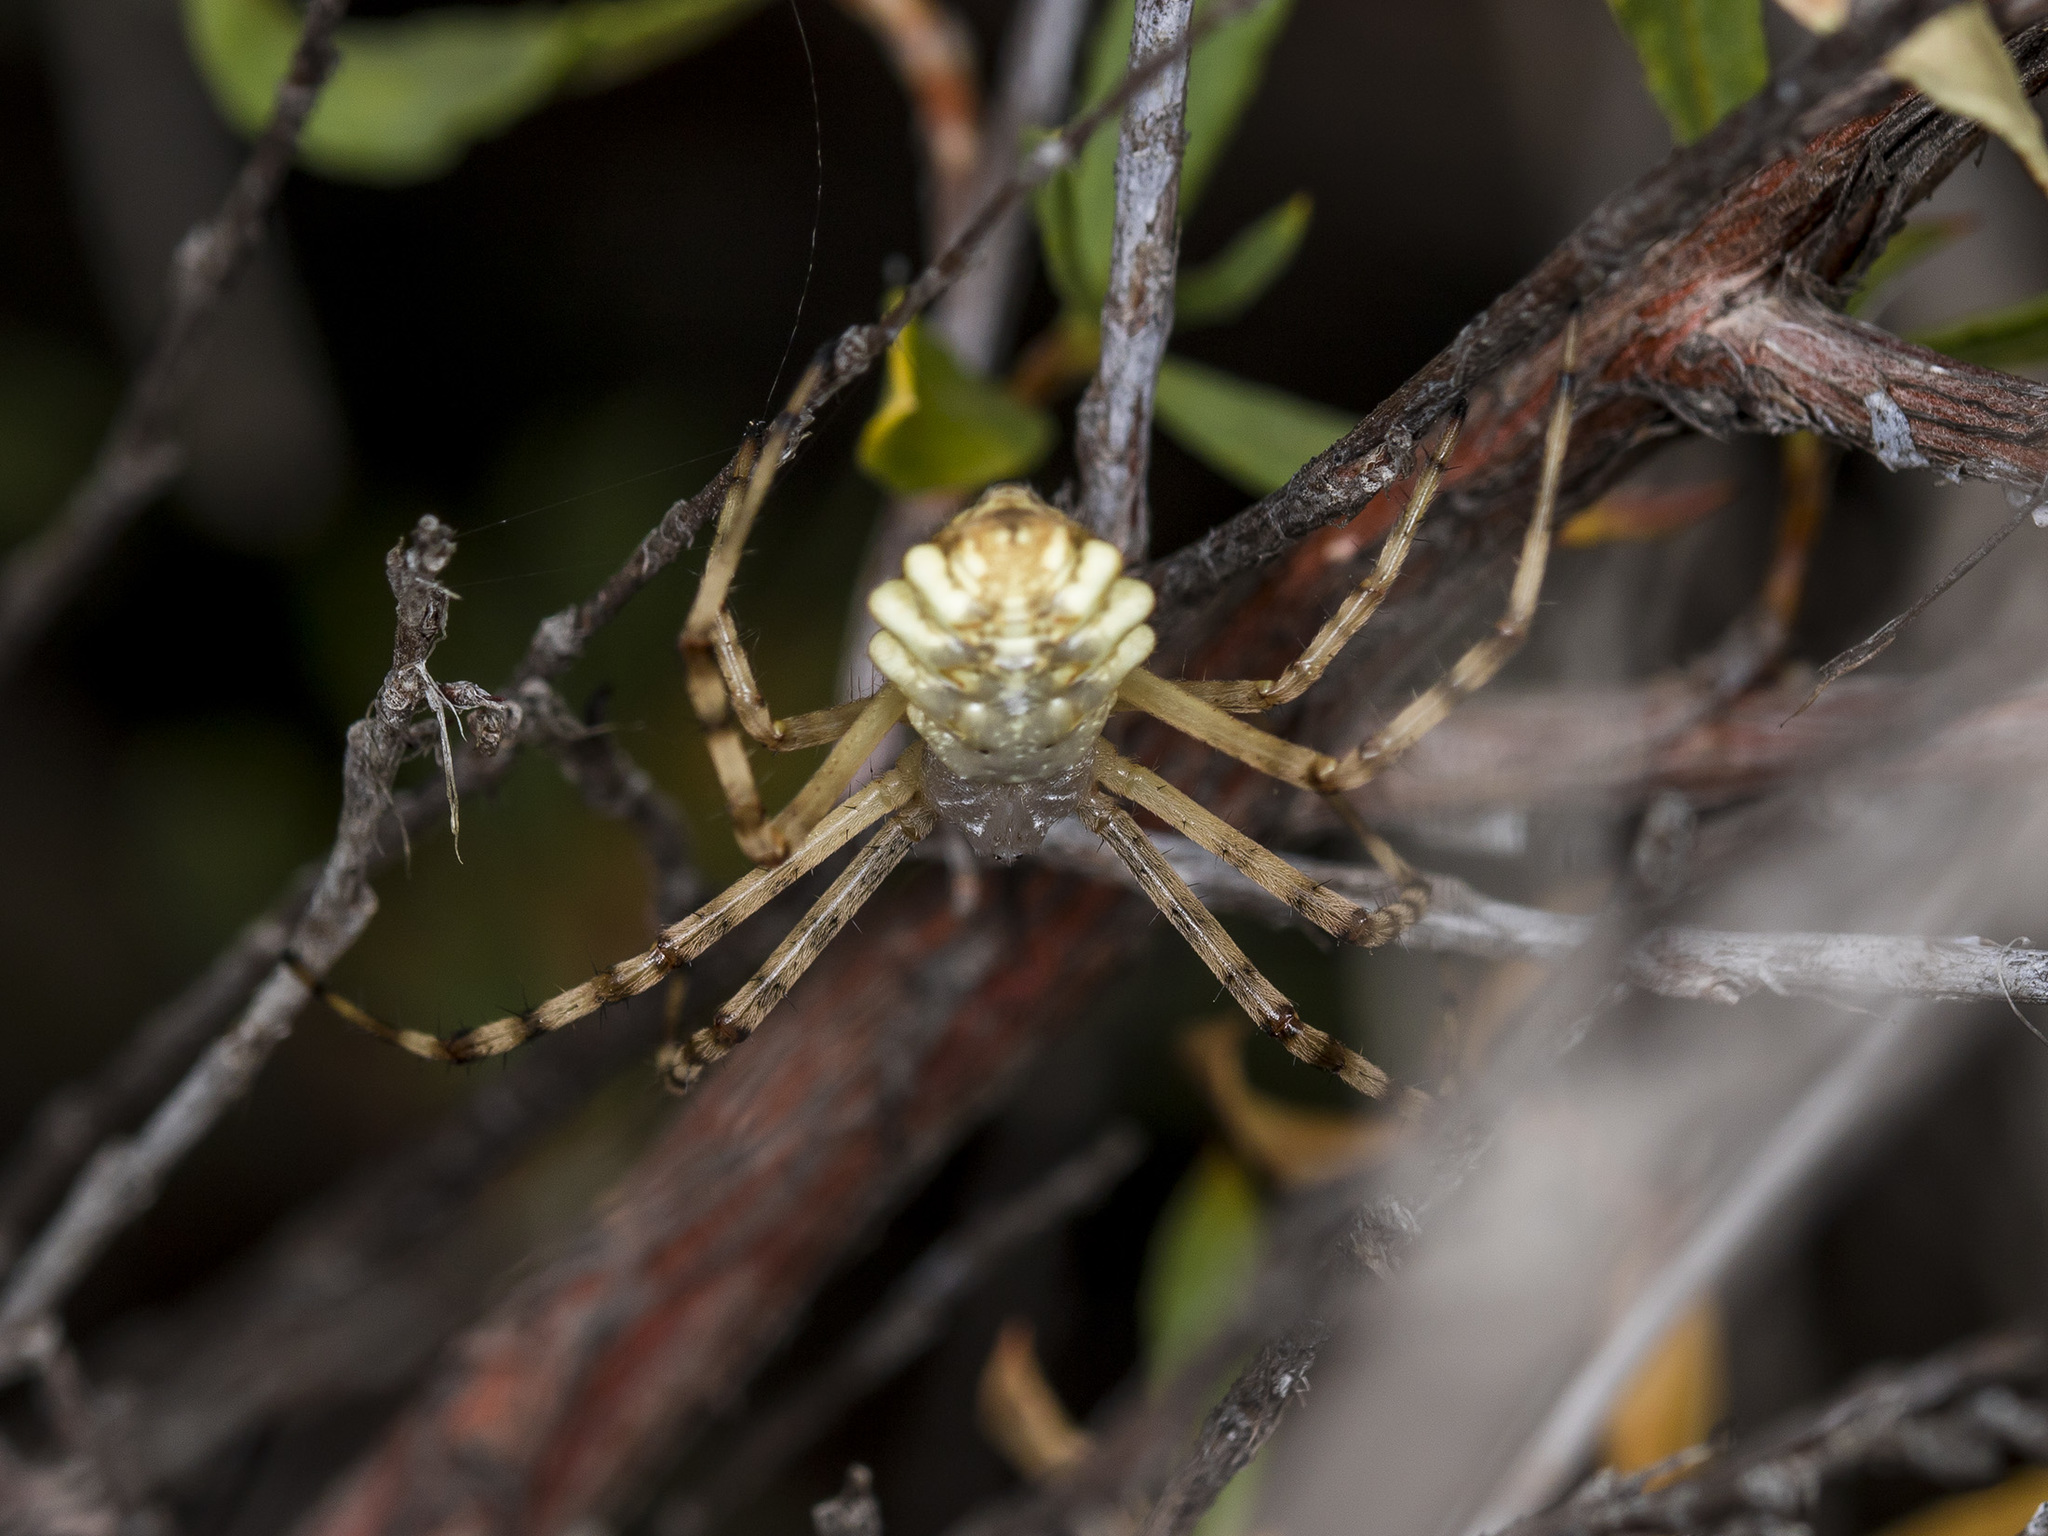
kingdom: Animalia
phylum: Arthropoda
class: Arachnida
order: Araneae
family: Araneidae
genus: Argiope
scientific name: Argiope lobata
